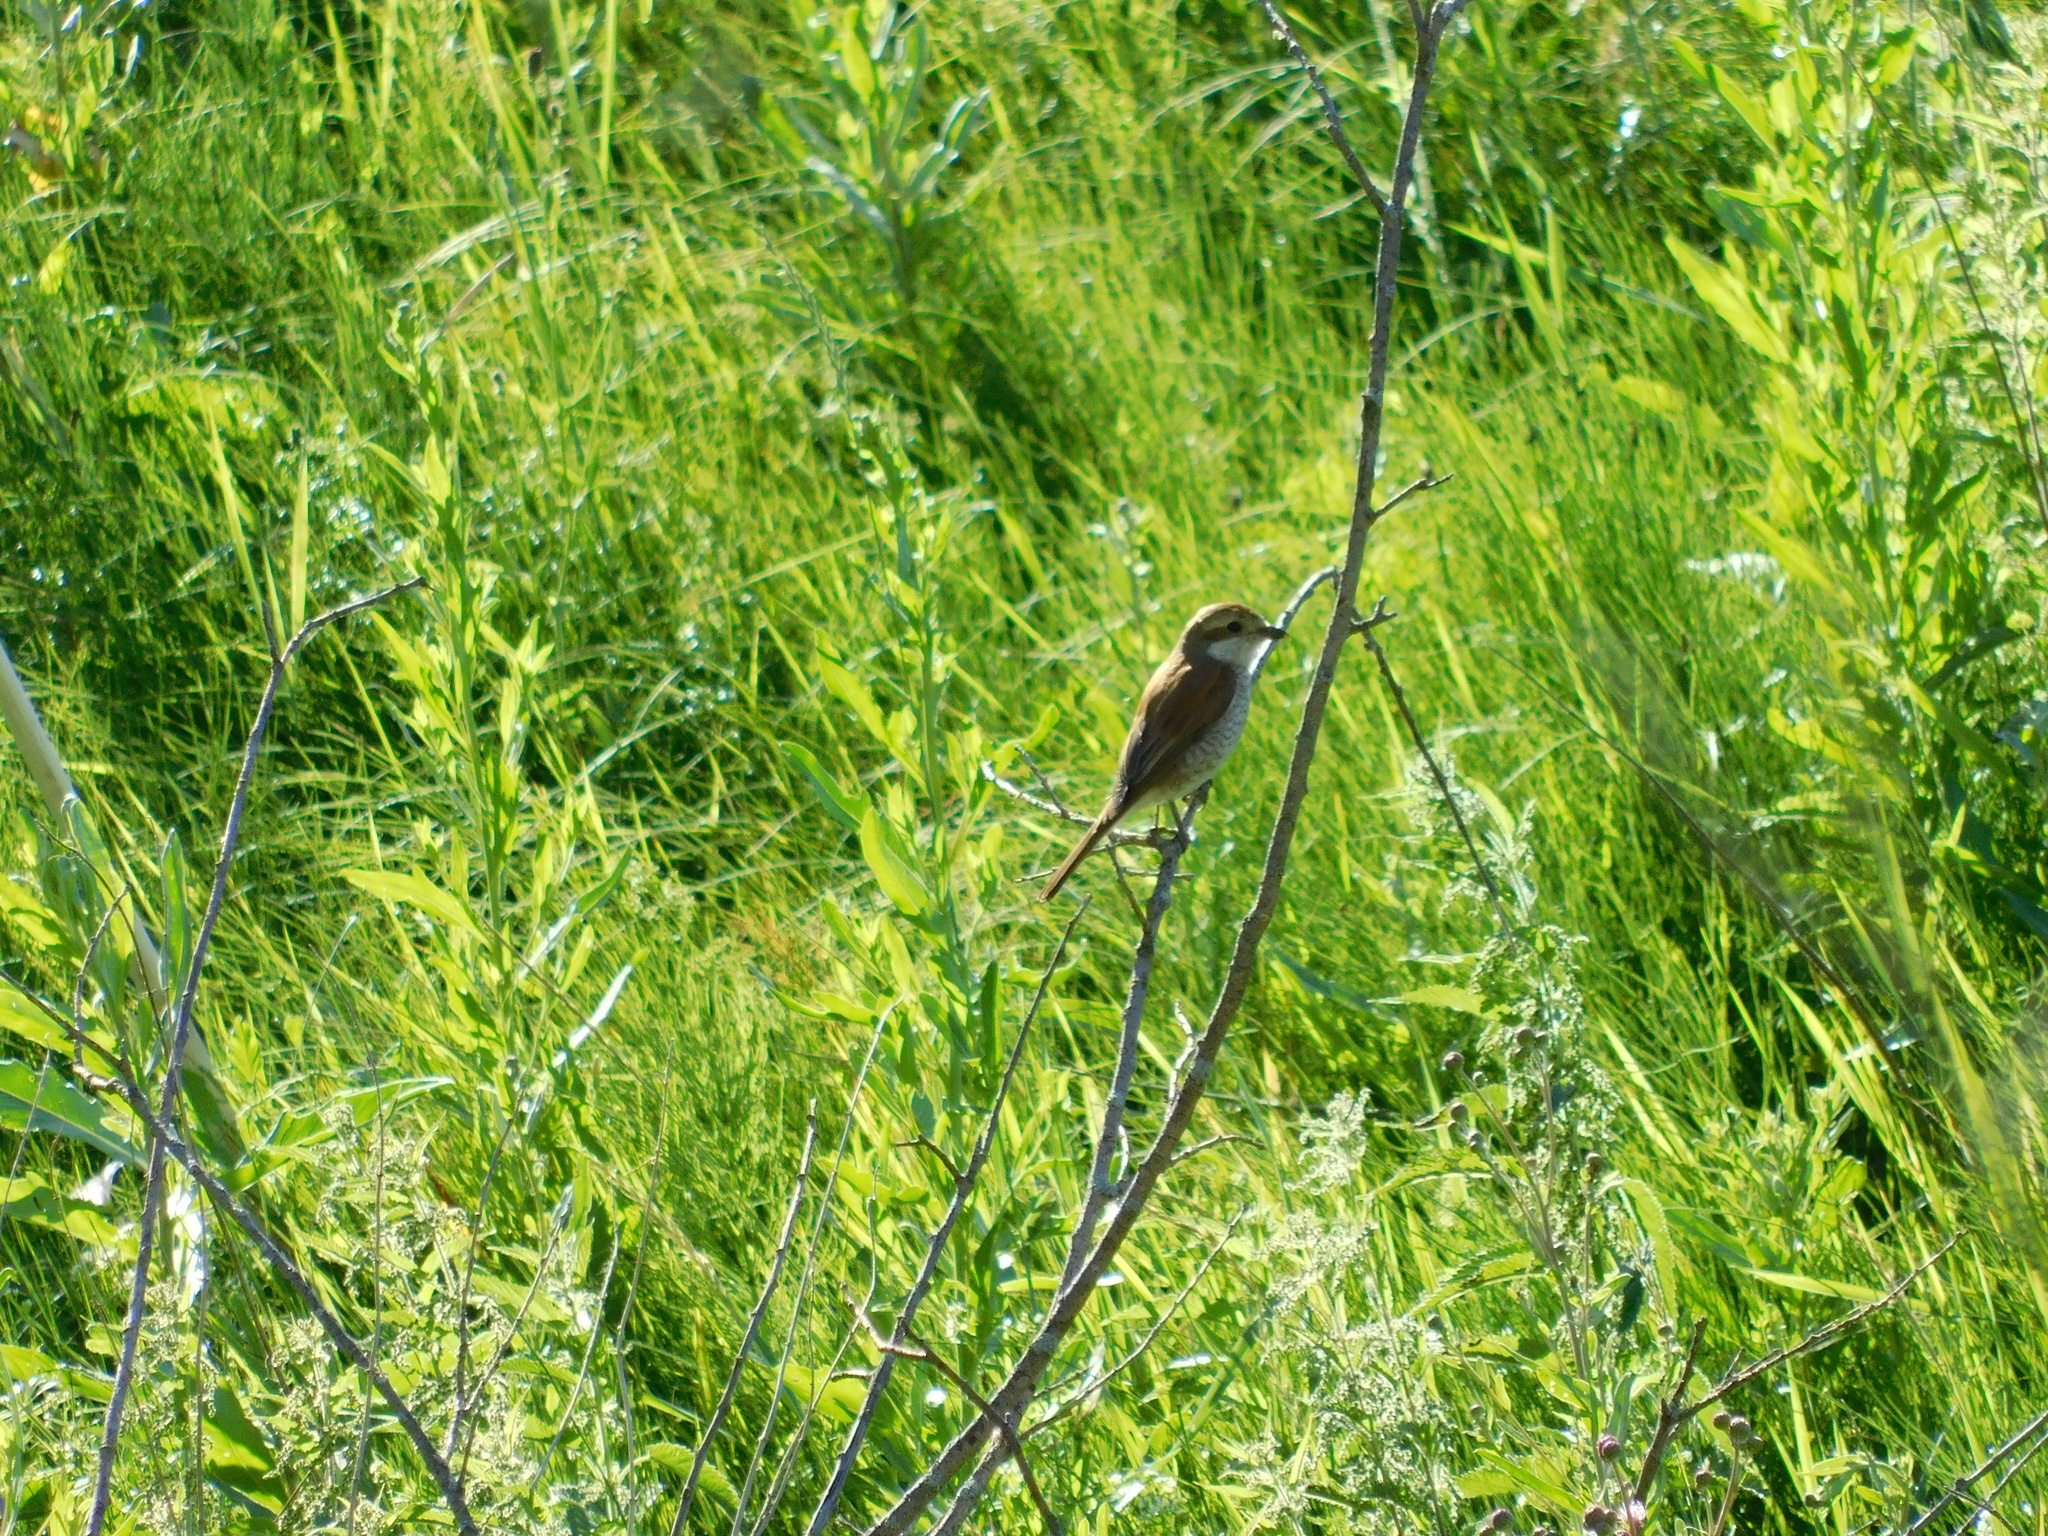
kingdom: Animalia
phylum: Chordata
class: Aves
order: Passeriformes
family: Laniidae
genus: Lanius
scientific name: Lanius collurio
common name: Red-backed shrike
